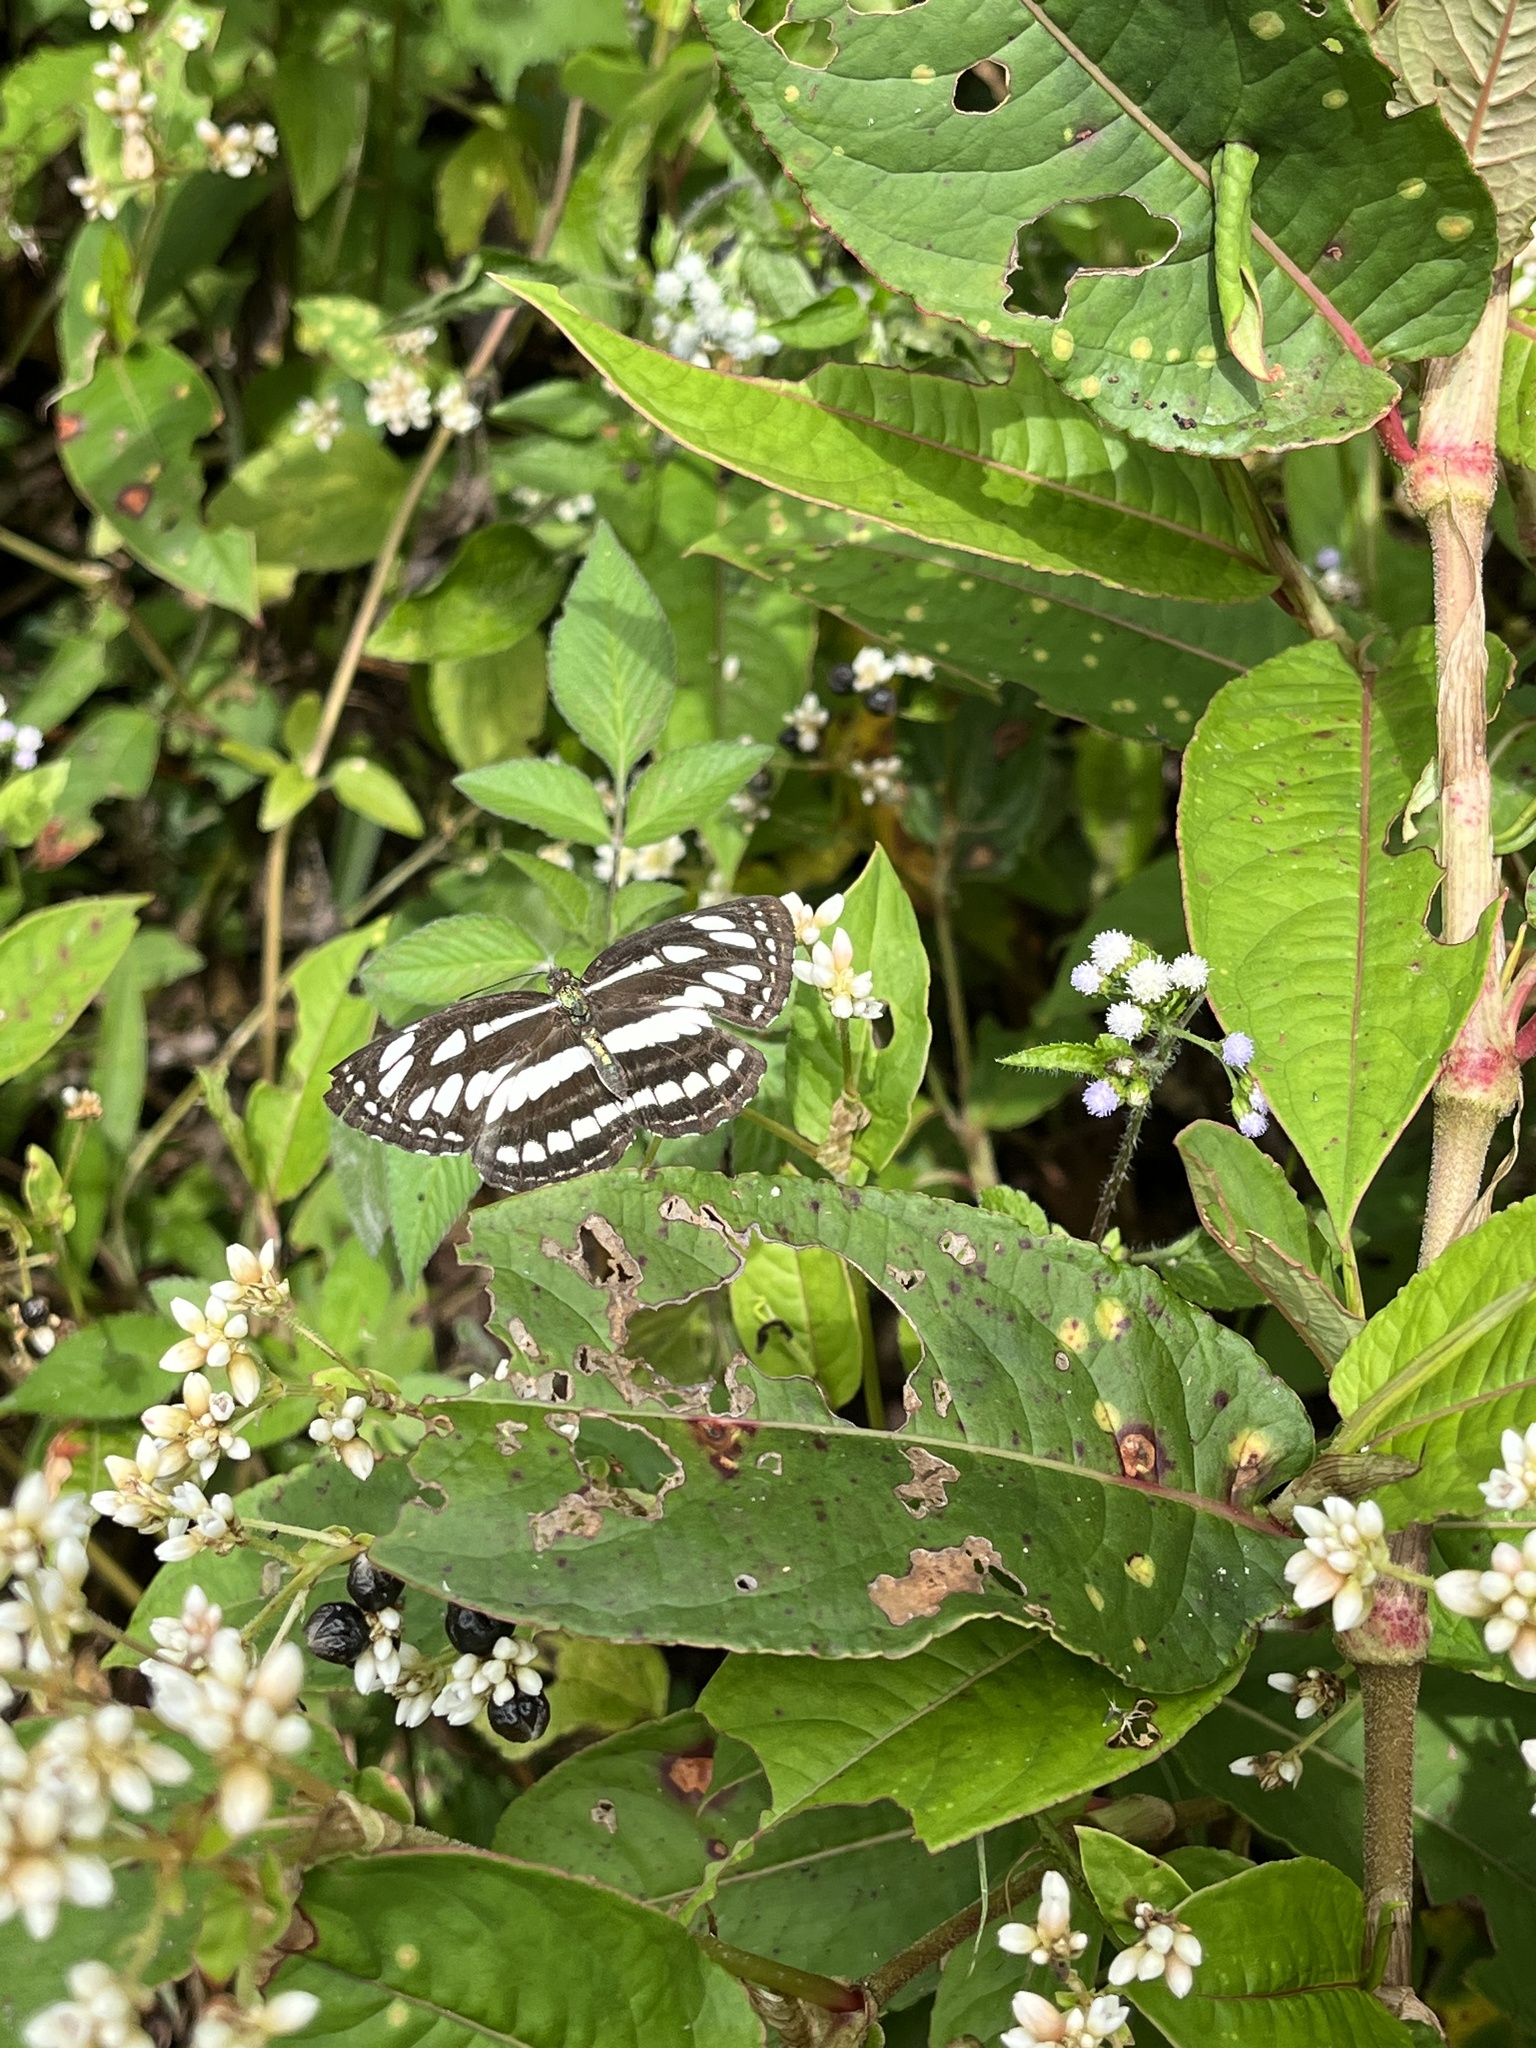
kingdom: Animalia
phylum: Arthropoda
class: Insecta
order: Lepidoptera
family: Nymphalidae
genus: Neptis
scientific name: Neptis hylas
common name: Common sailer
